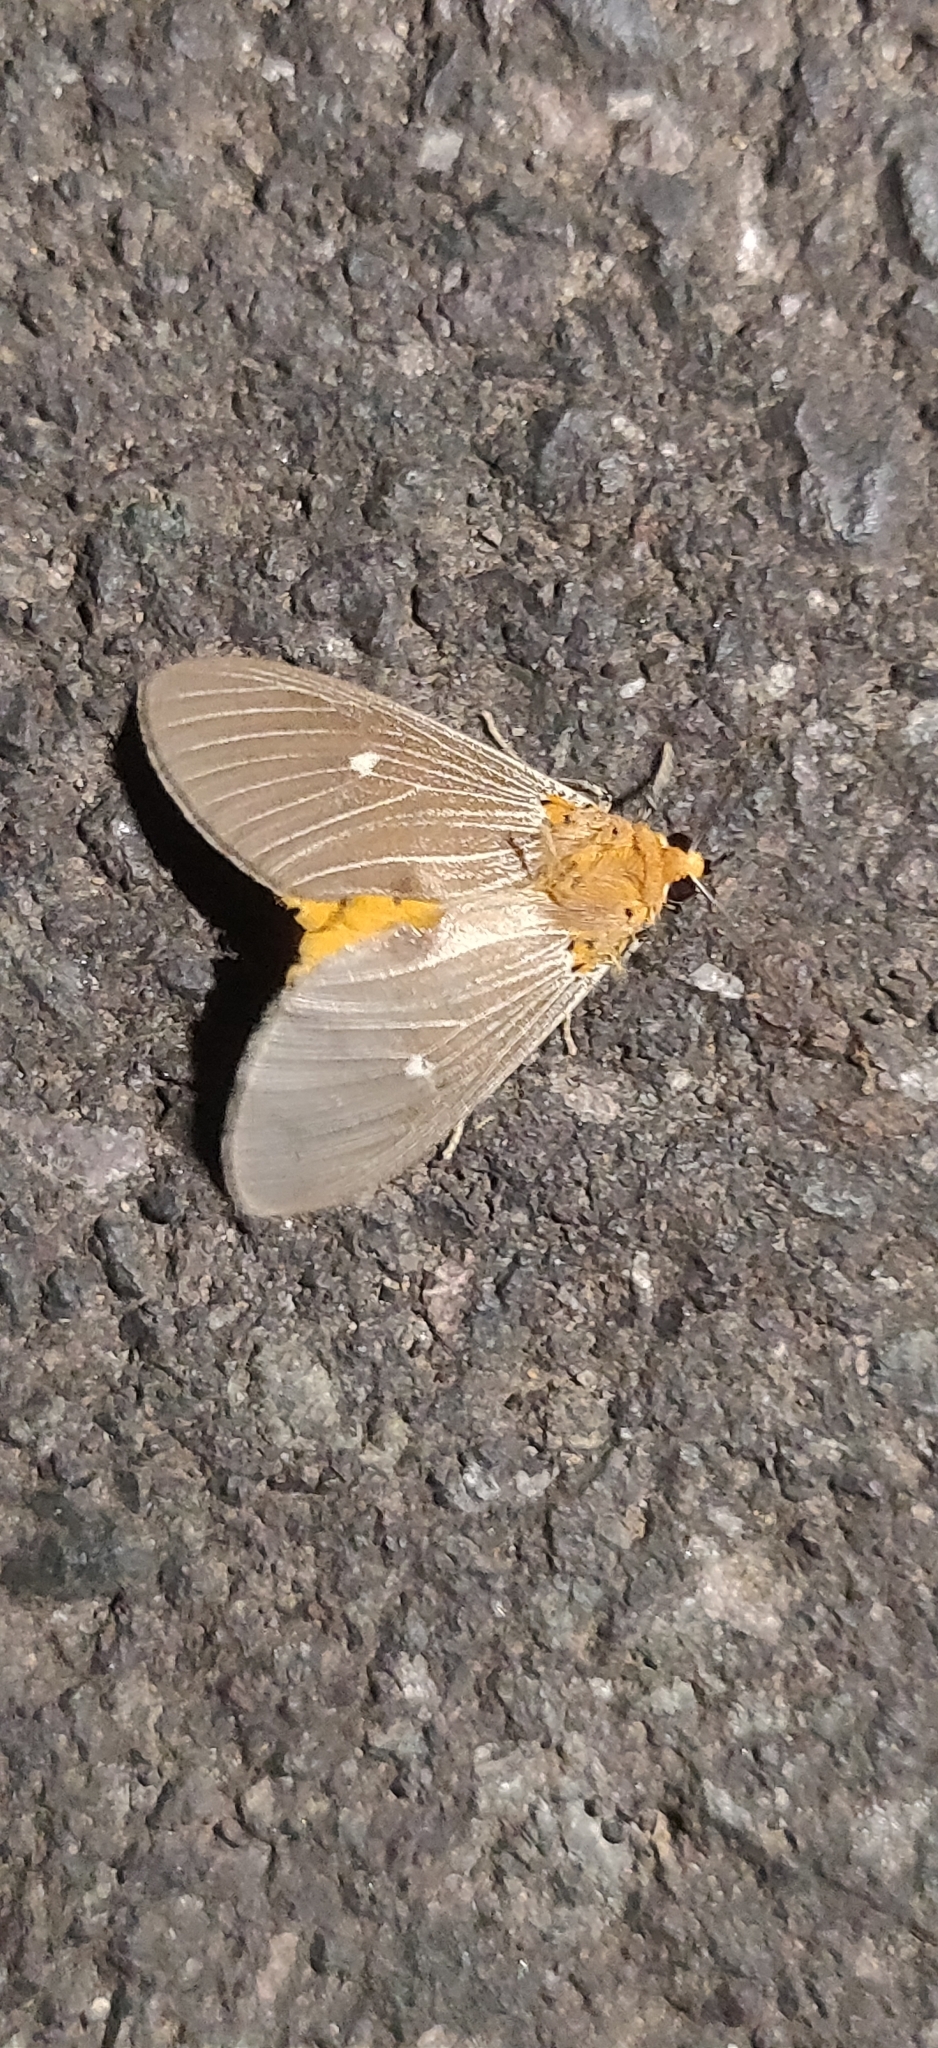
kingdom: Animalia
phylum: Arthropoda
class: Insecta
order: Lepidoptera
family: Erebidae
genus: Asota
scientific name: Asota caricae
